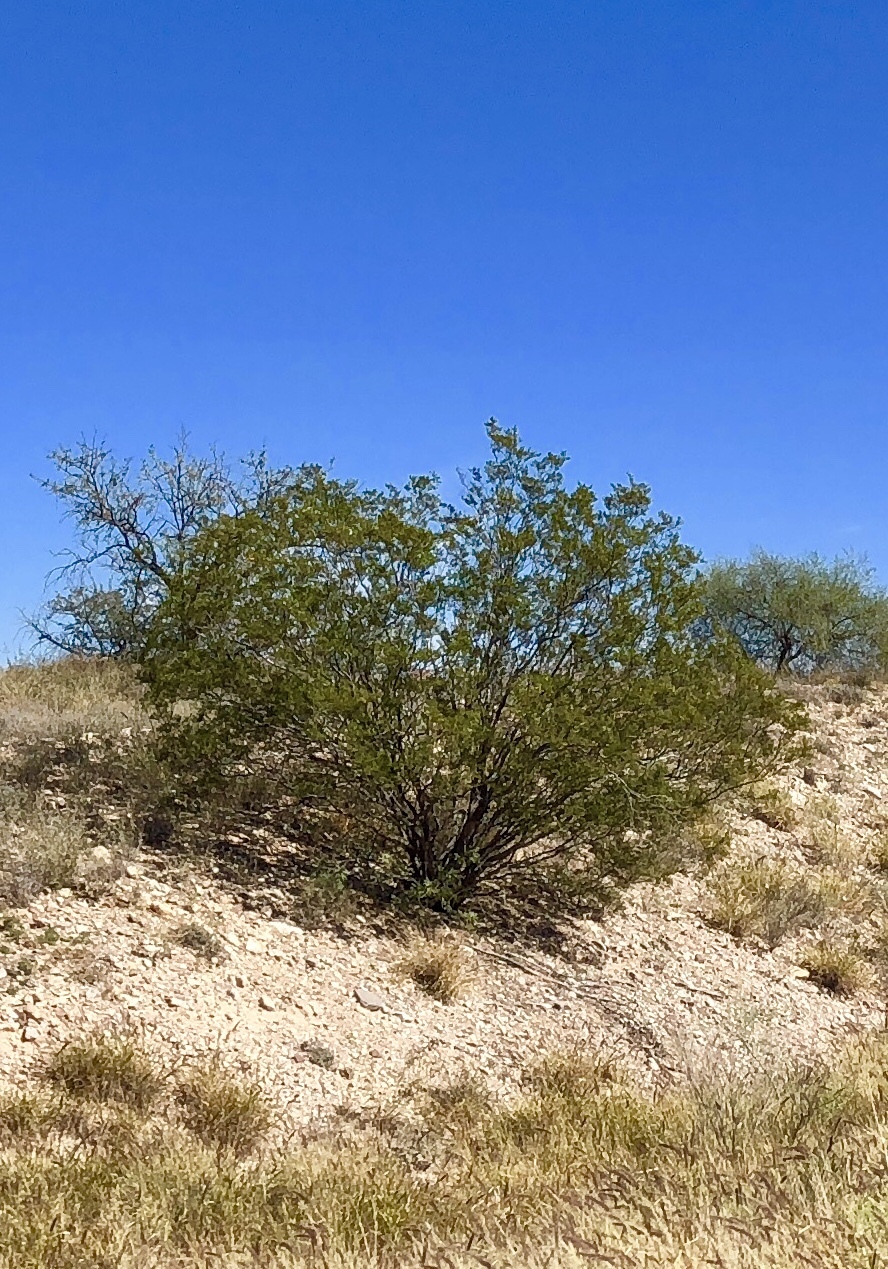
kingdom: Plantae
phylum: Tracheophyta
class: Magnoliopsida
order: Zygophyllales
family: Zygophyllaceae
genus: Larrea
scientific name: Larrea tridentata
